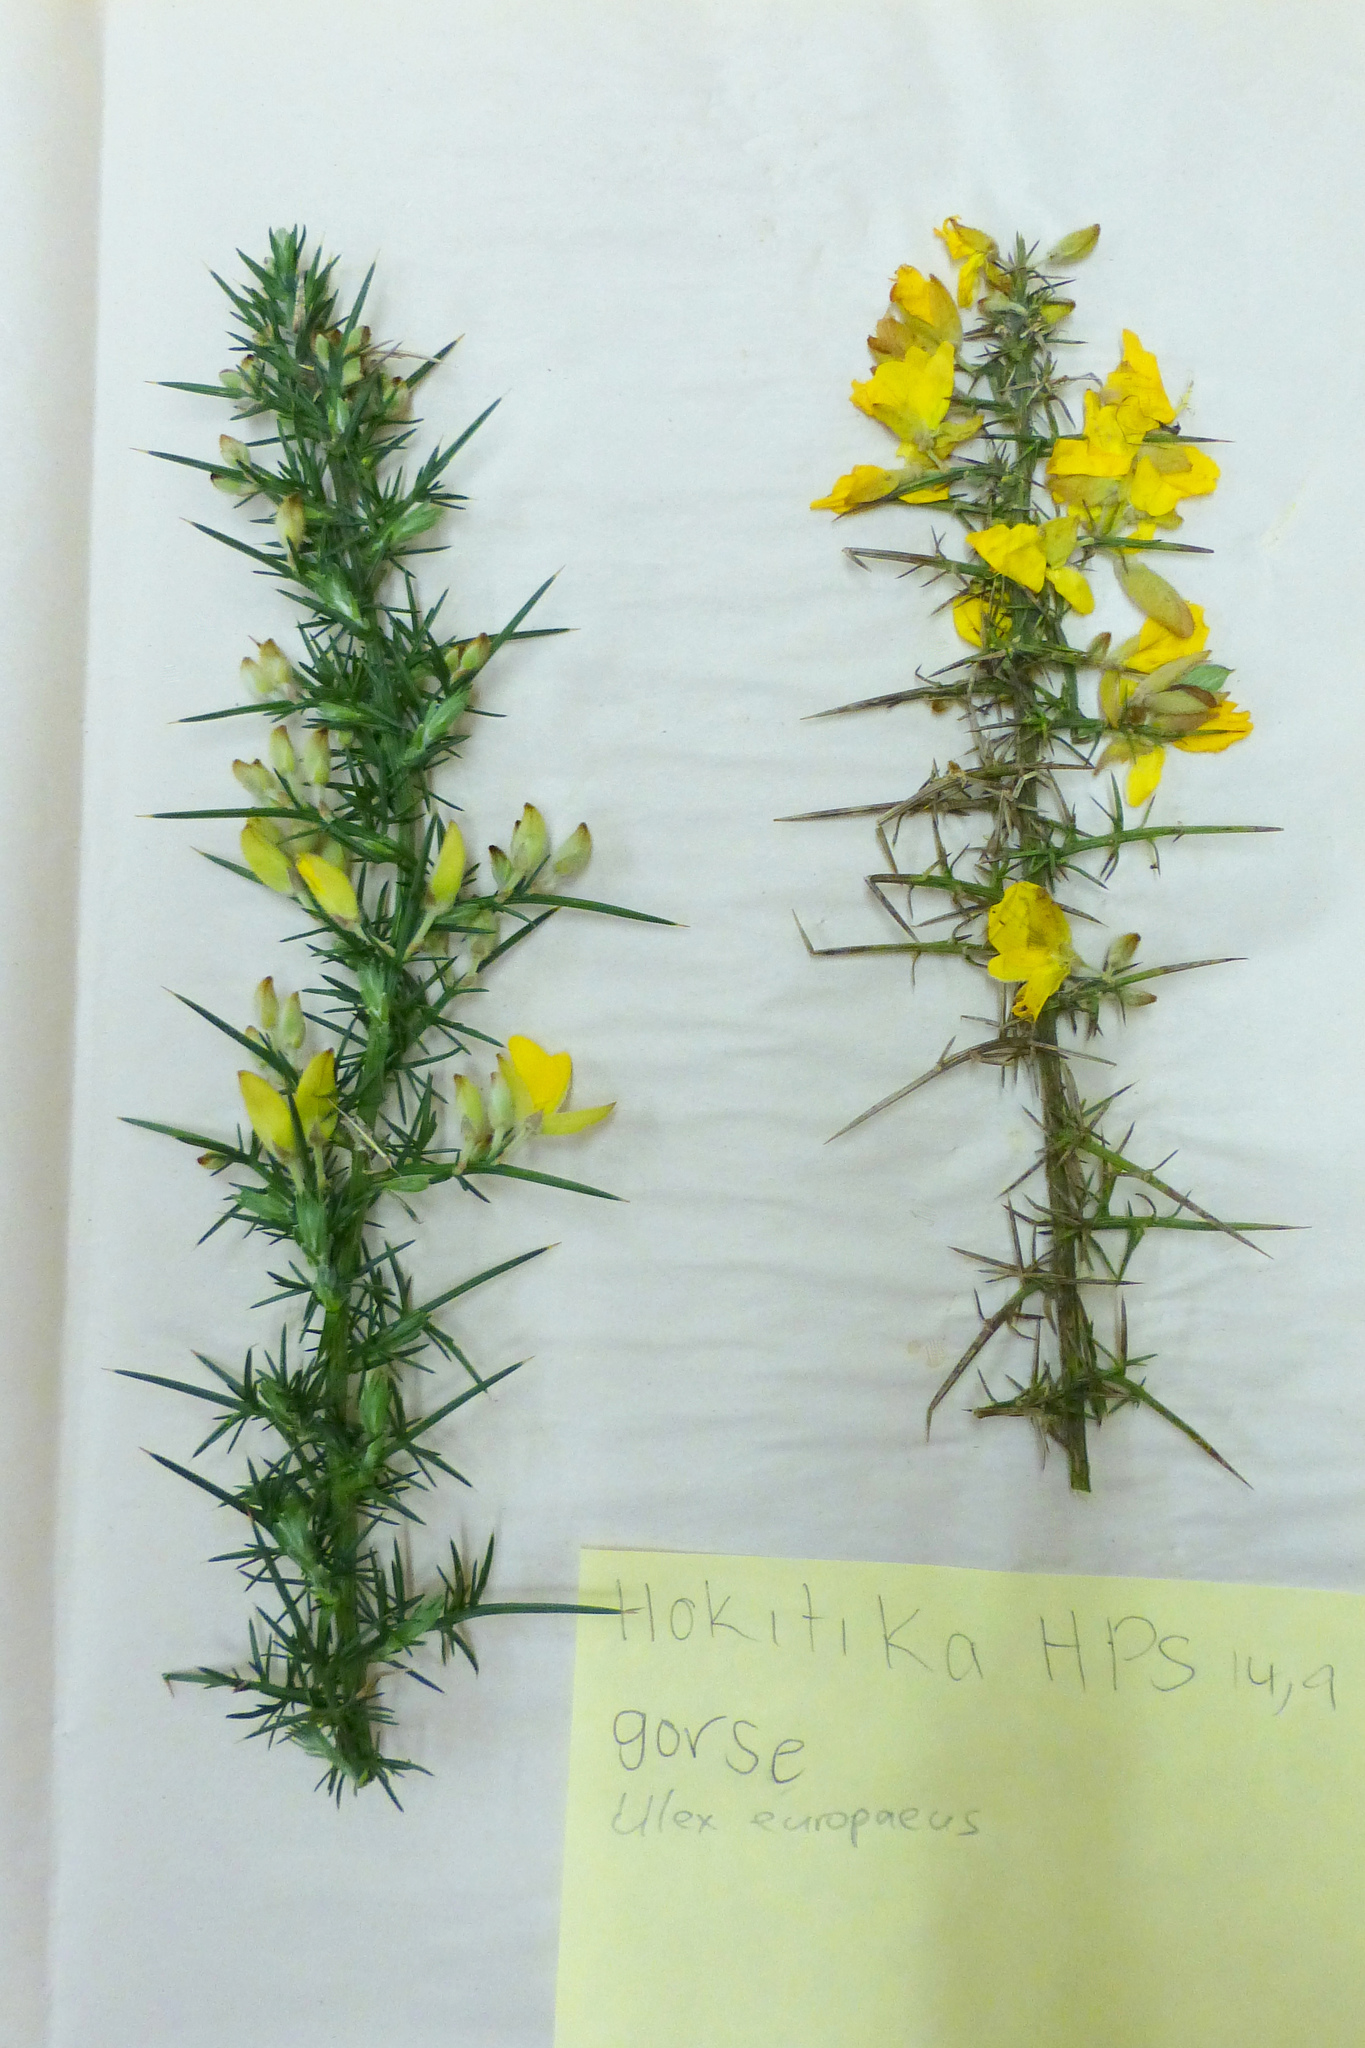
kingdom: Plantae
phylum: Tracheophyta
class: Magnoliopsida
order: Fabales
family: Fabaceae
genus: Ulex
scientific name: Ulex europaeus
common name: Common gorse
